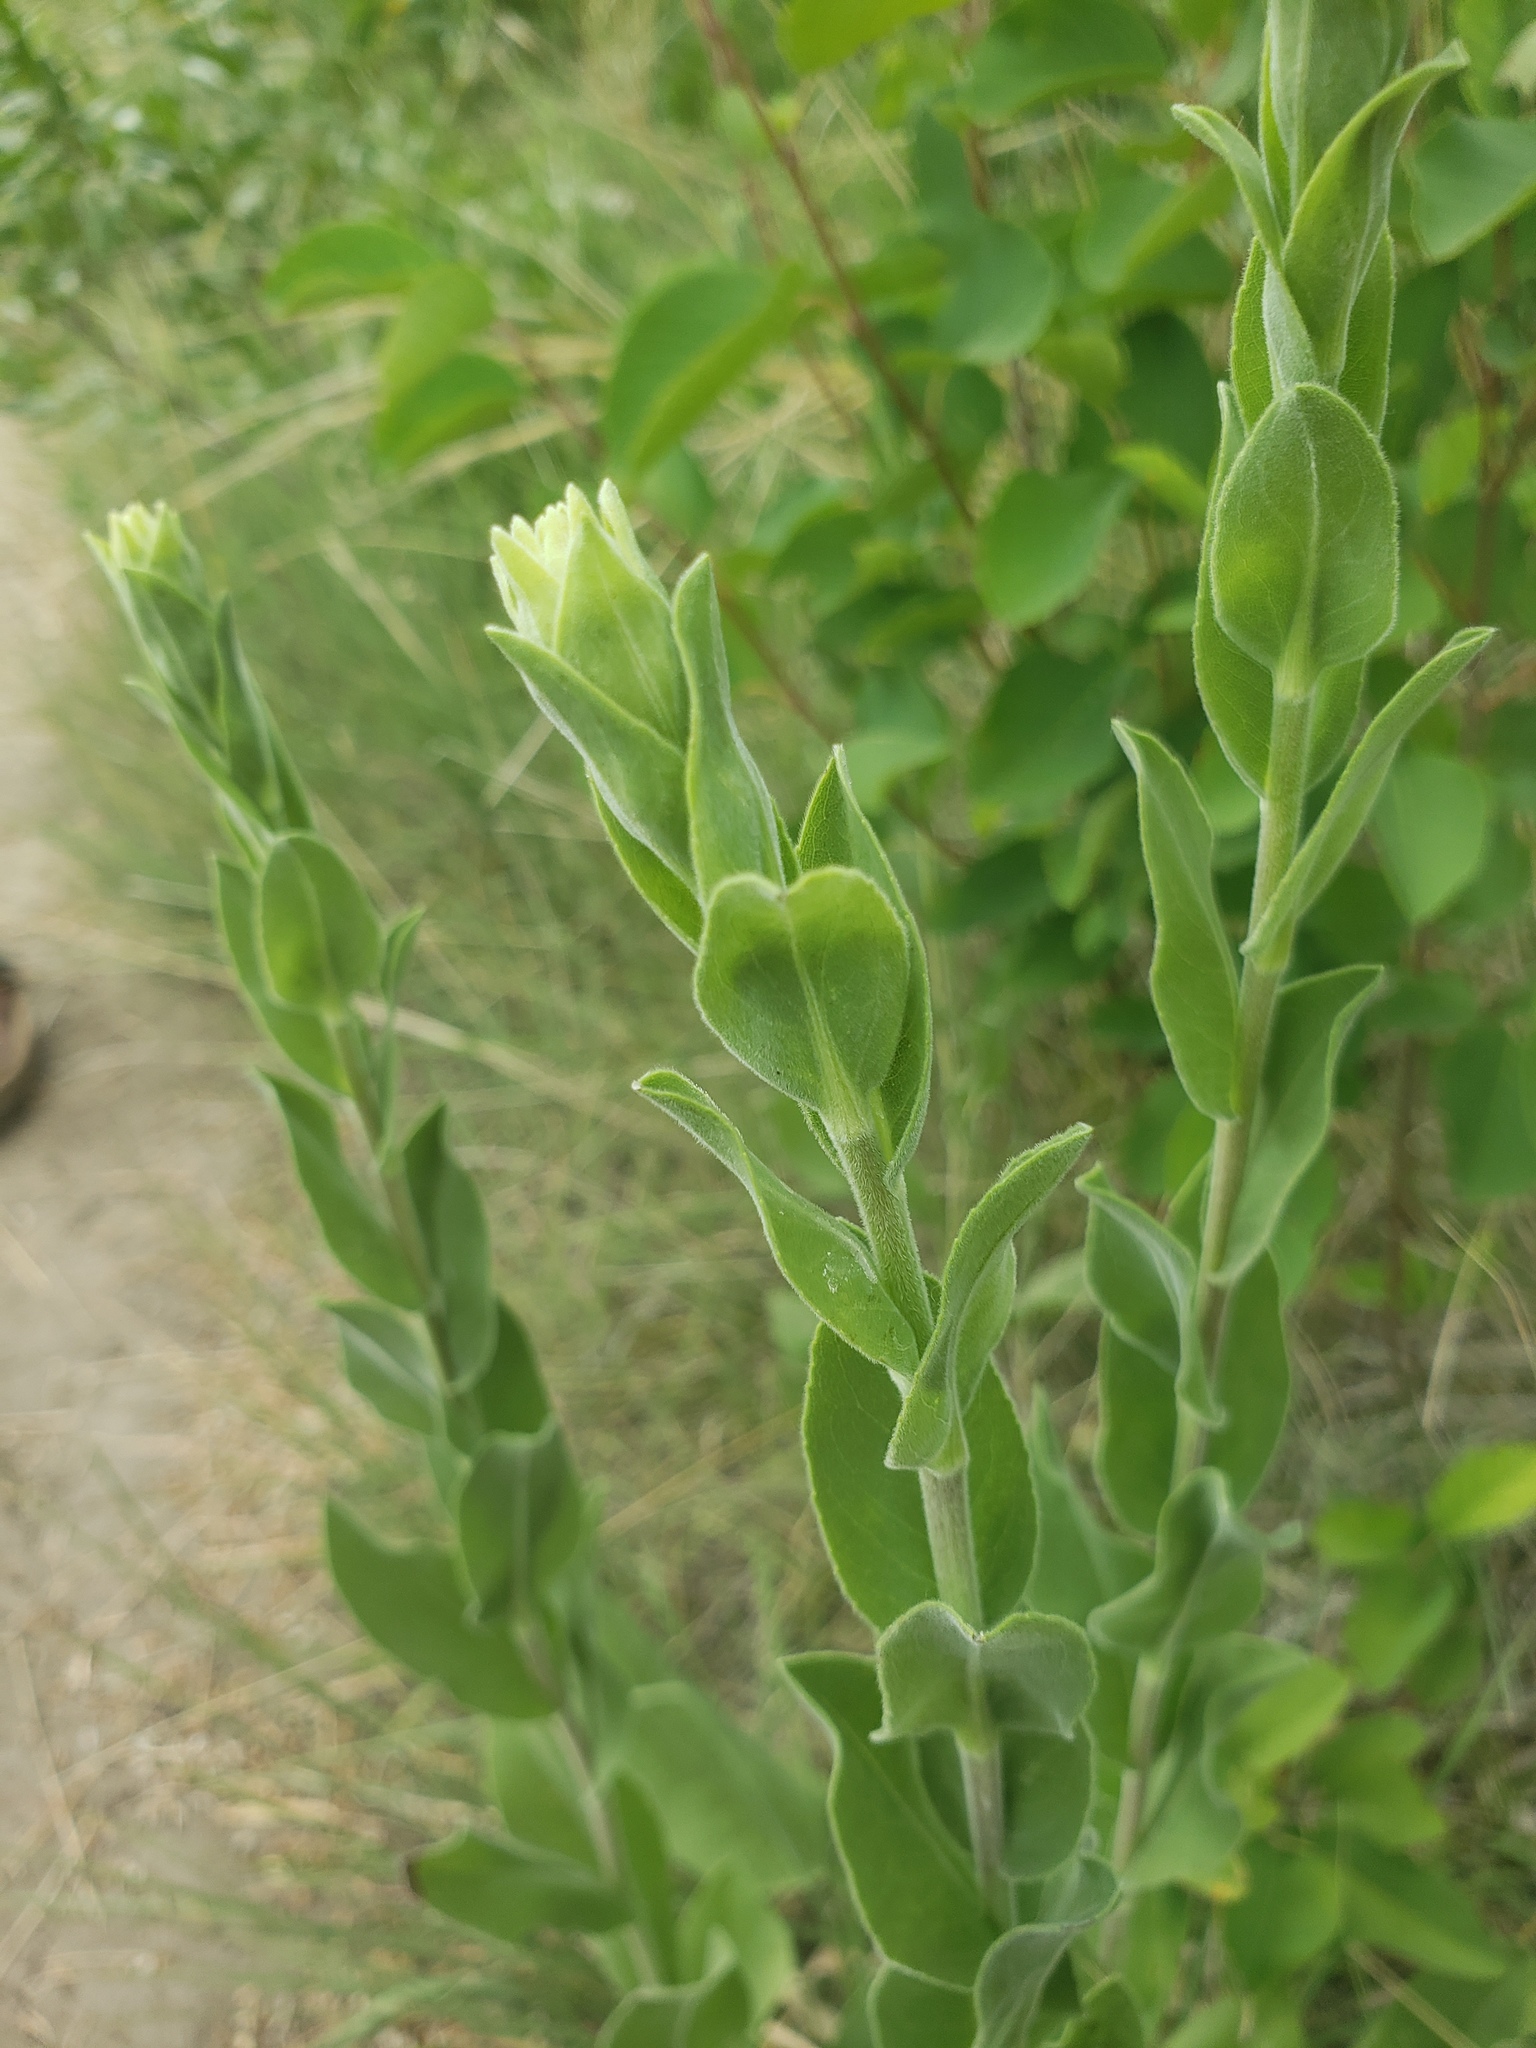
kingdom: Plantae
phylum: Tracheophyta
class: Magnoliopsida
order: Asterales
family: Asteraceae
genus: Solidago
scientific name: Solidago rigida
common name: Rigid goldenrod
